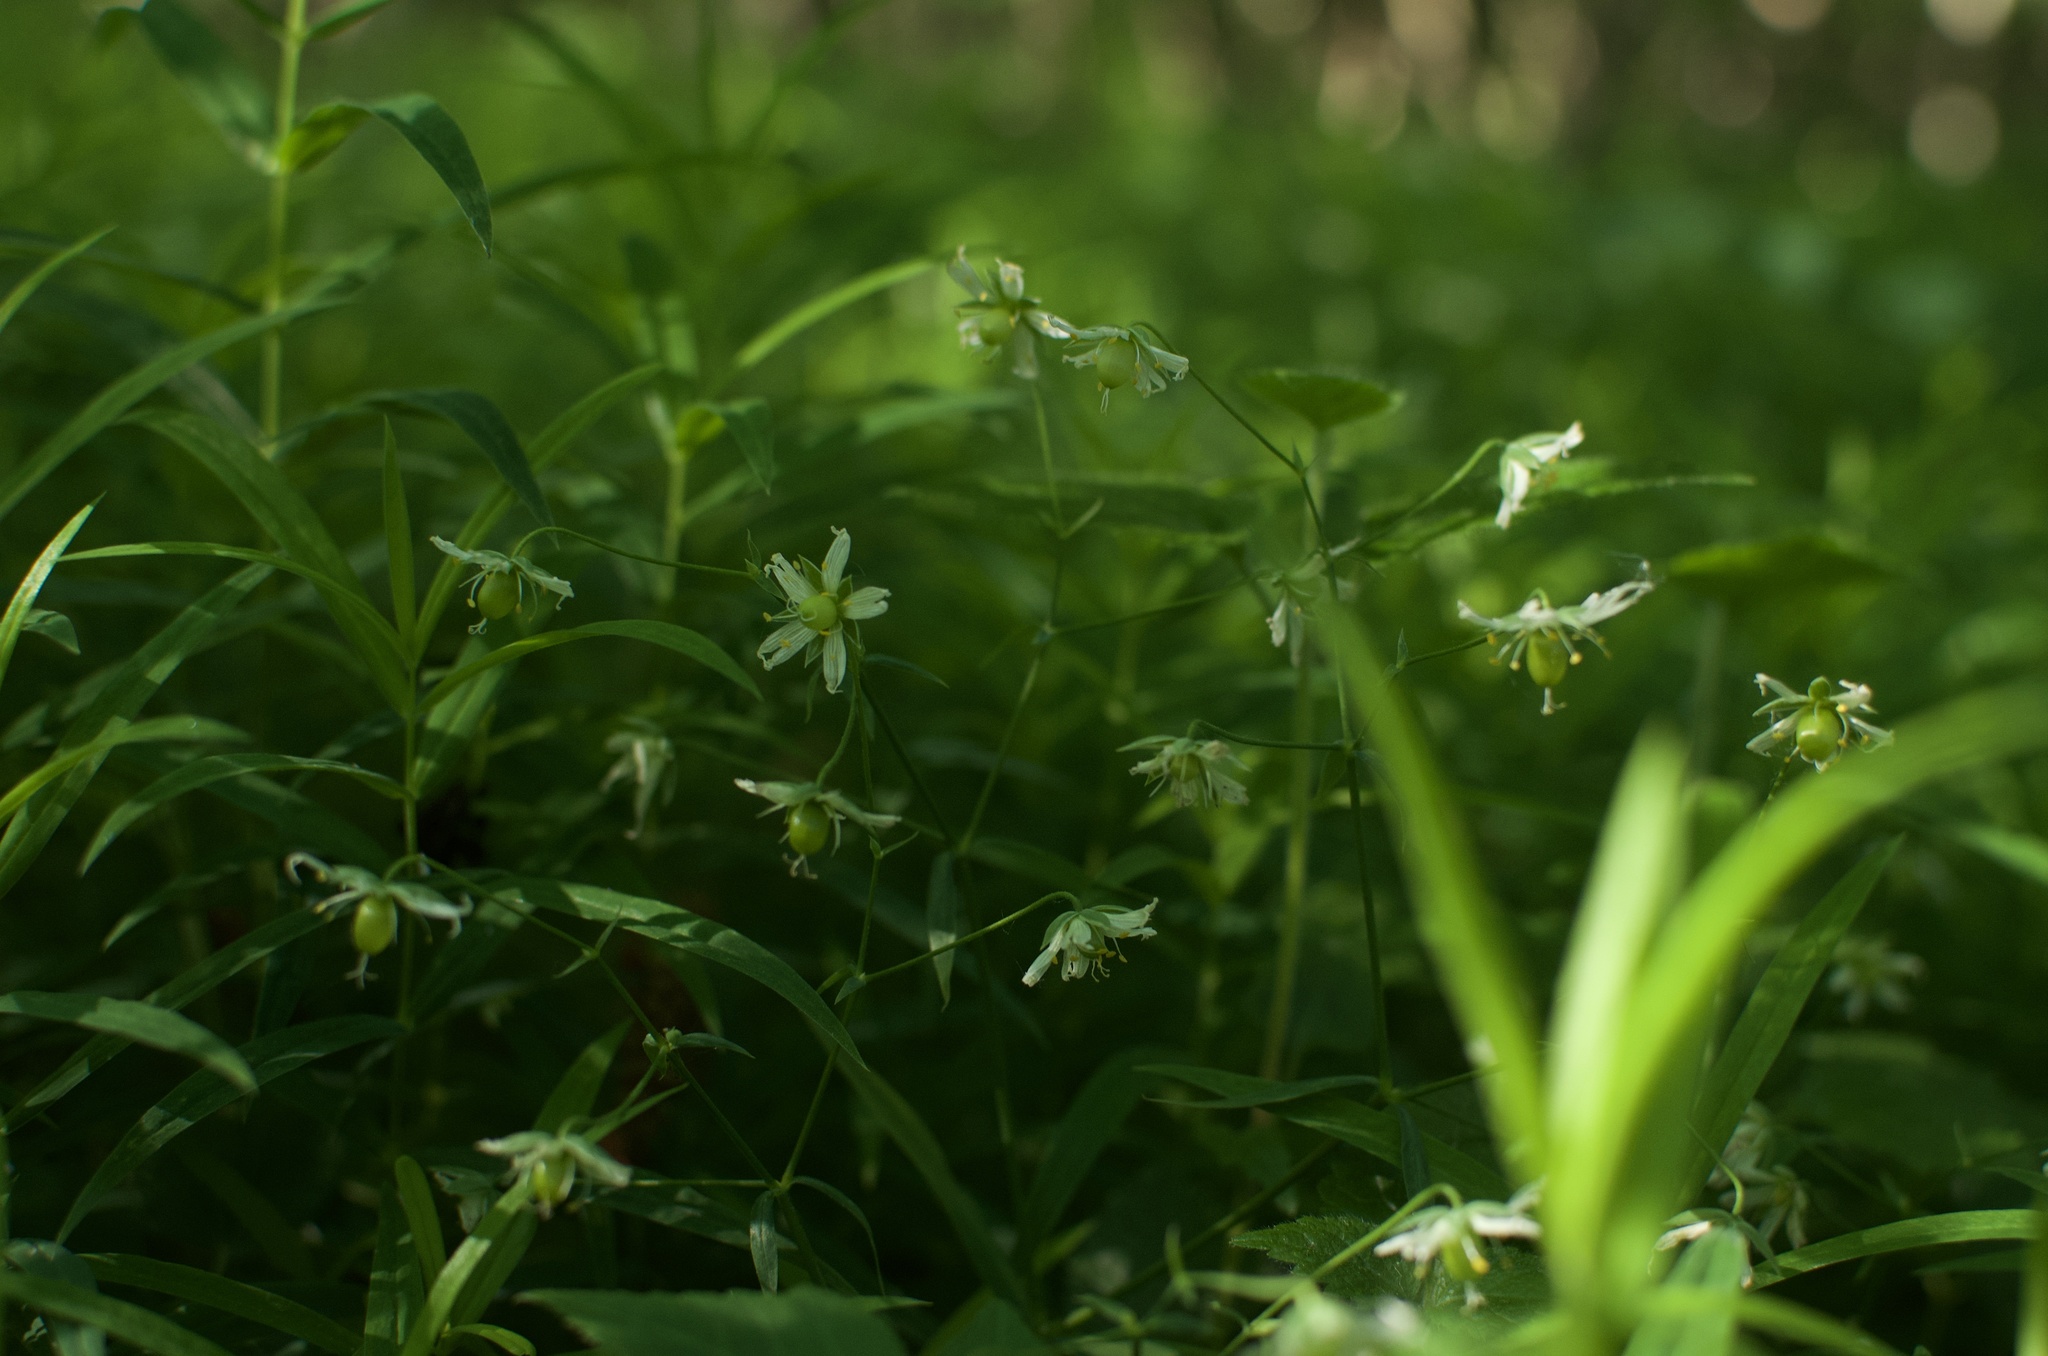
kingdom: Plantae
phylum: Tracheophyta
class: Magnoliopsida
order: Caryophyllales
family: Caryophyllaceae
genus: Rabelera
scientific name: Rabelera holostea
